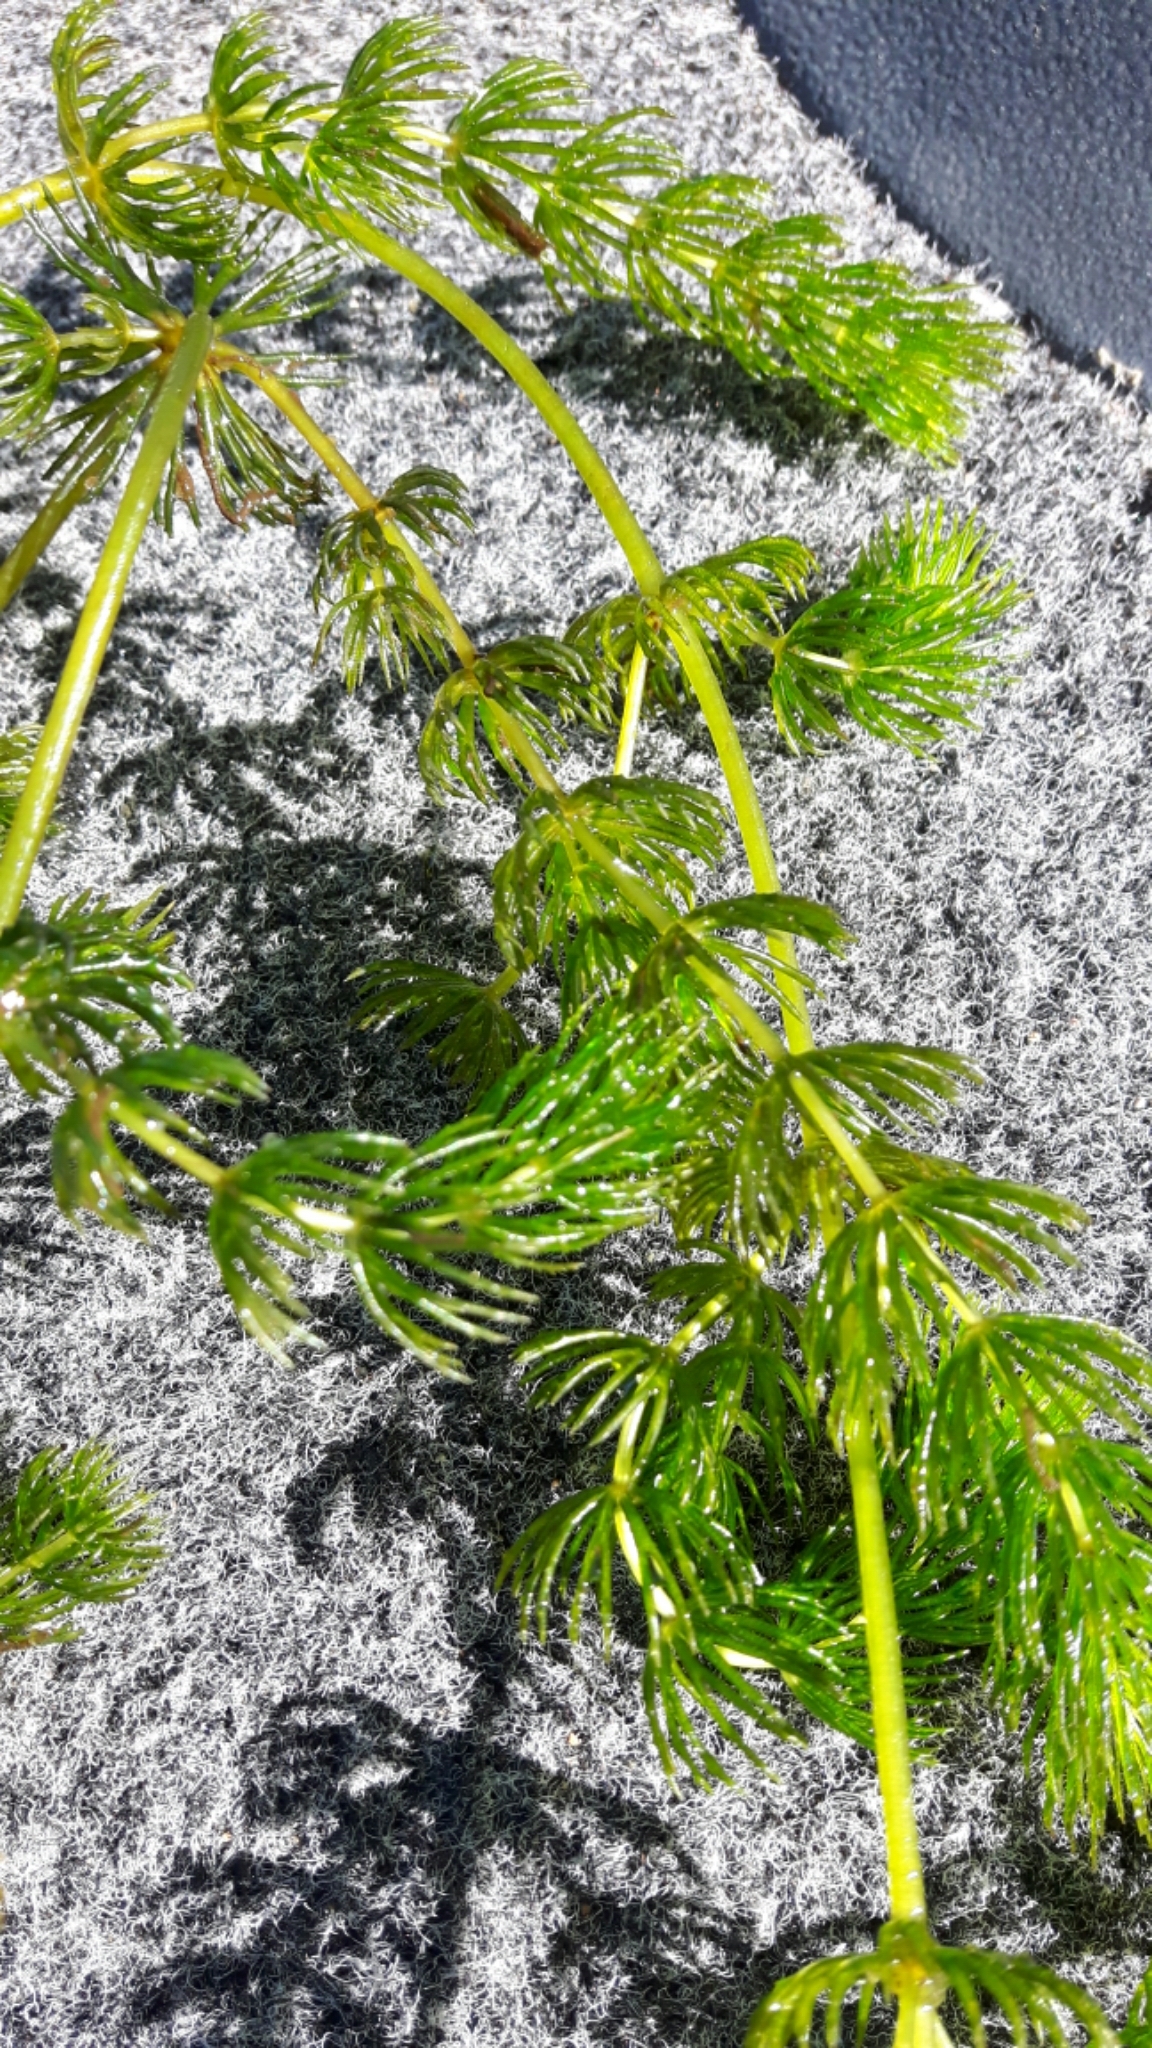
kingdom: Plantae
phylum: Tracheophyta
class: Magnoliopsida
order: Ceratophyllales
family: Ceratophyllaceae
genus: Ceratophyllum
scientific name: Ceratophyllum demersum
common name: Rigid hornwort
